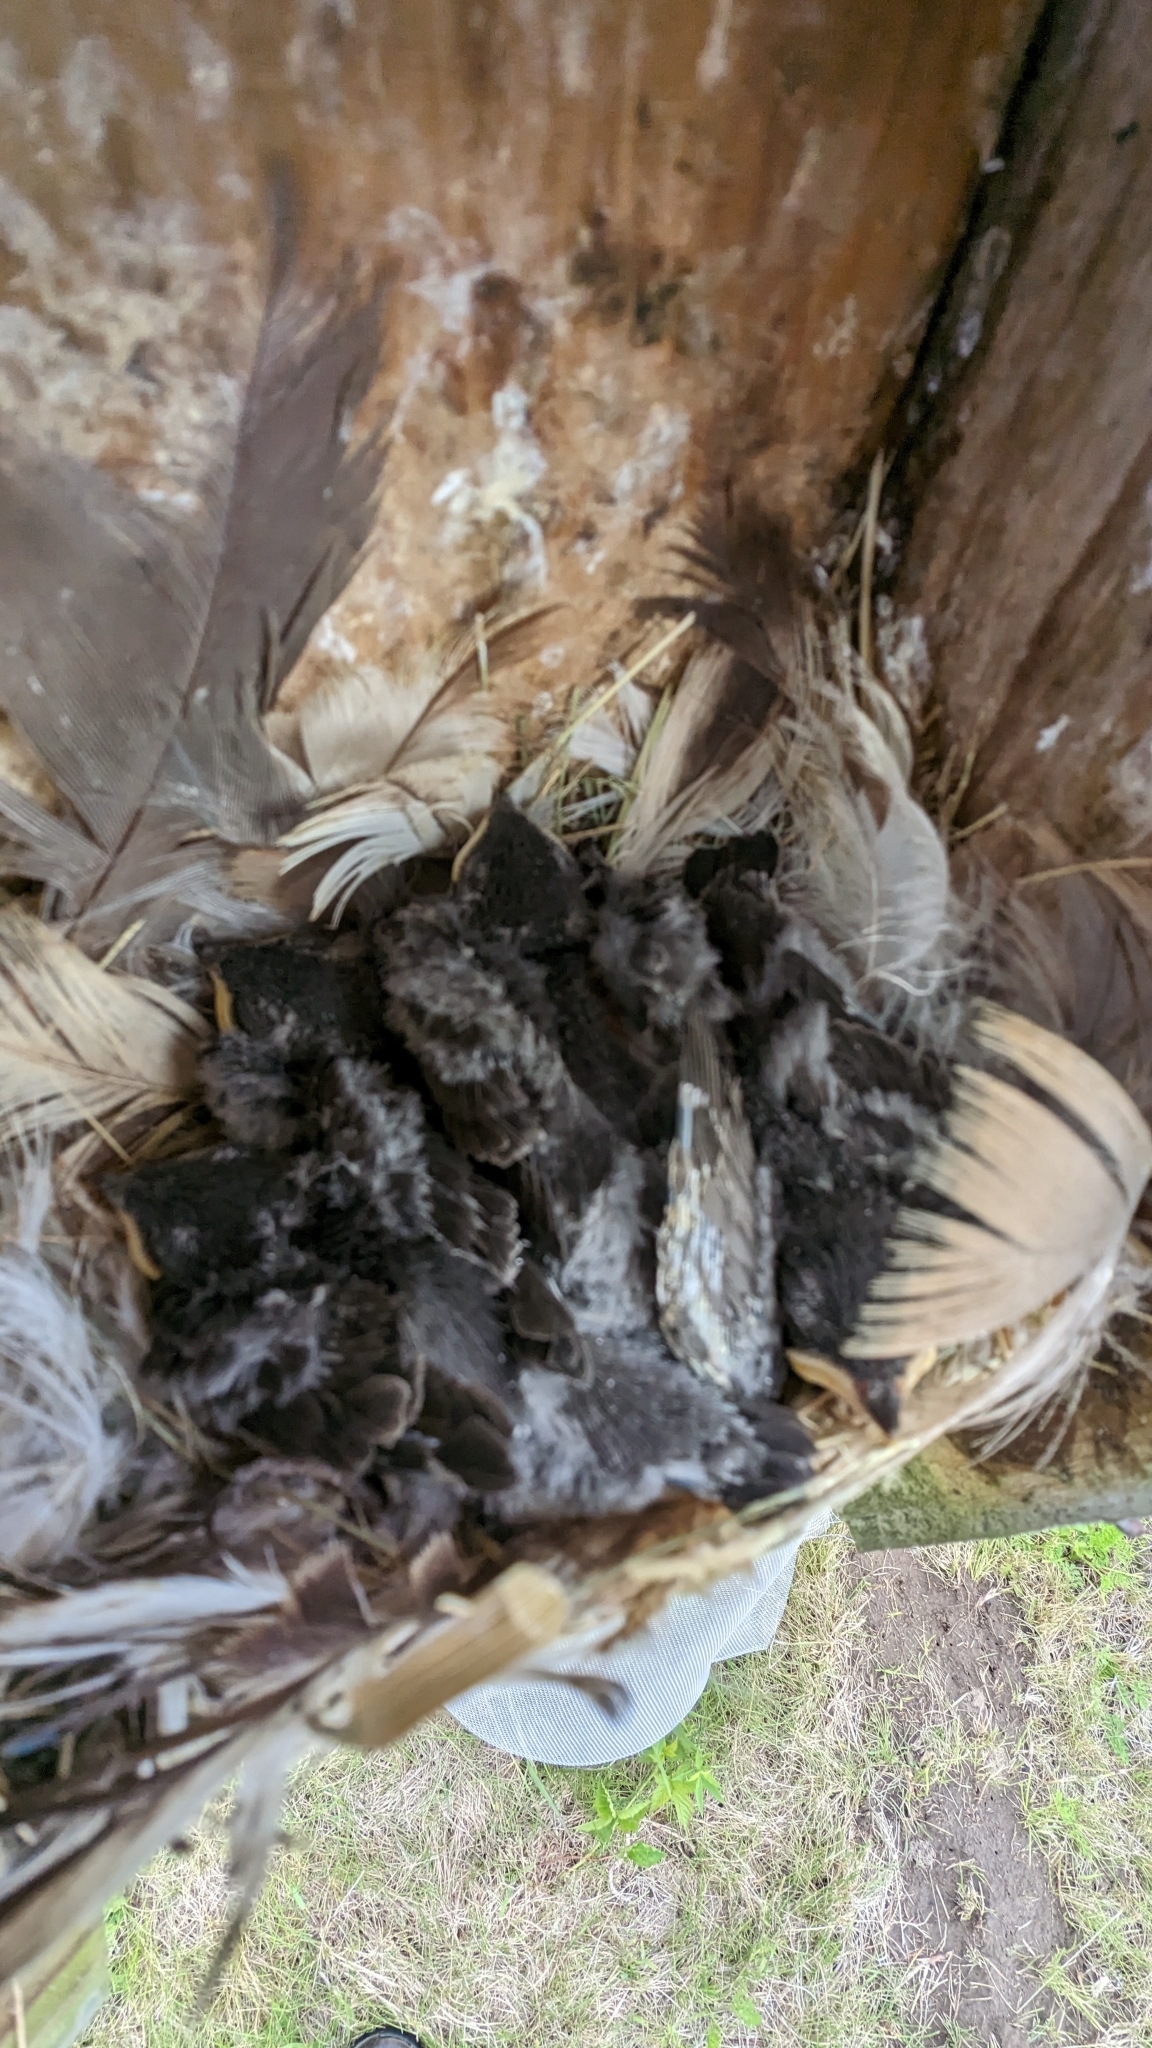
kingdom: Animalia
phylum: Chordata
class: Aves
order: Passeriformes
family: Hirundinidae
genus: Tachycineta
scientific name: Tachycineta bicolor
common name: Tree swallow
